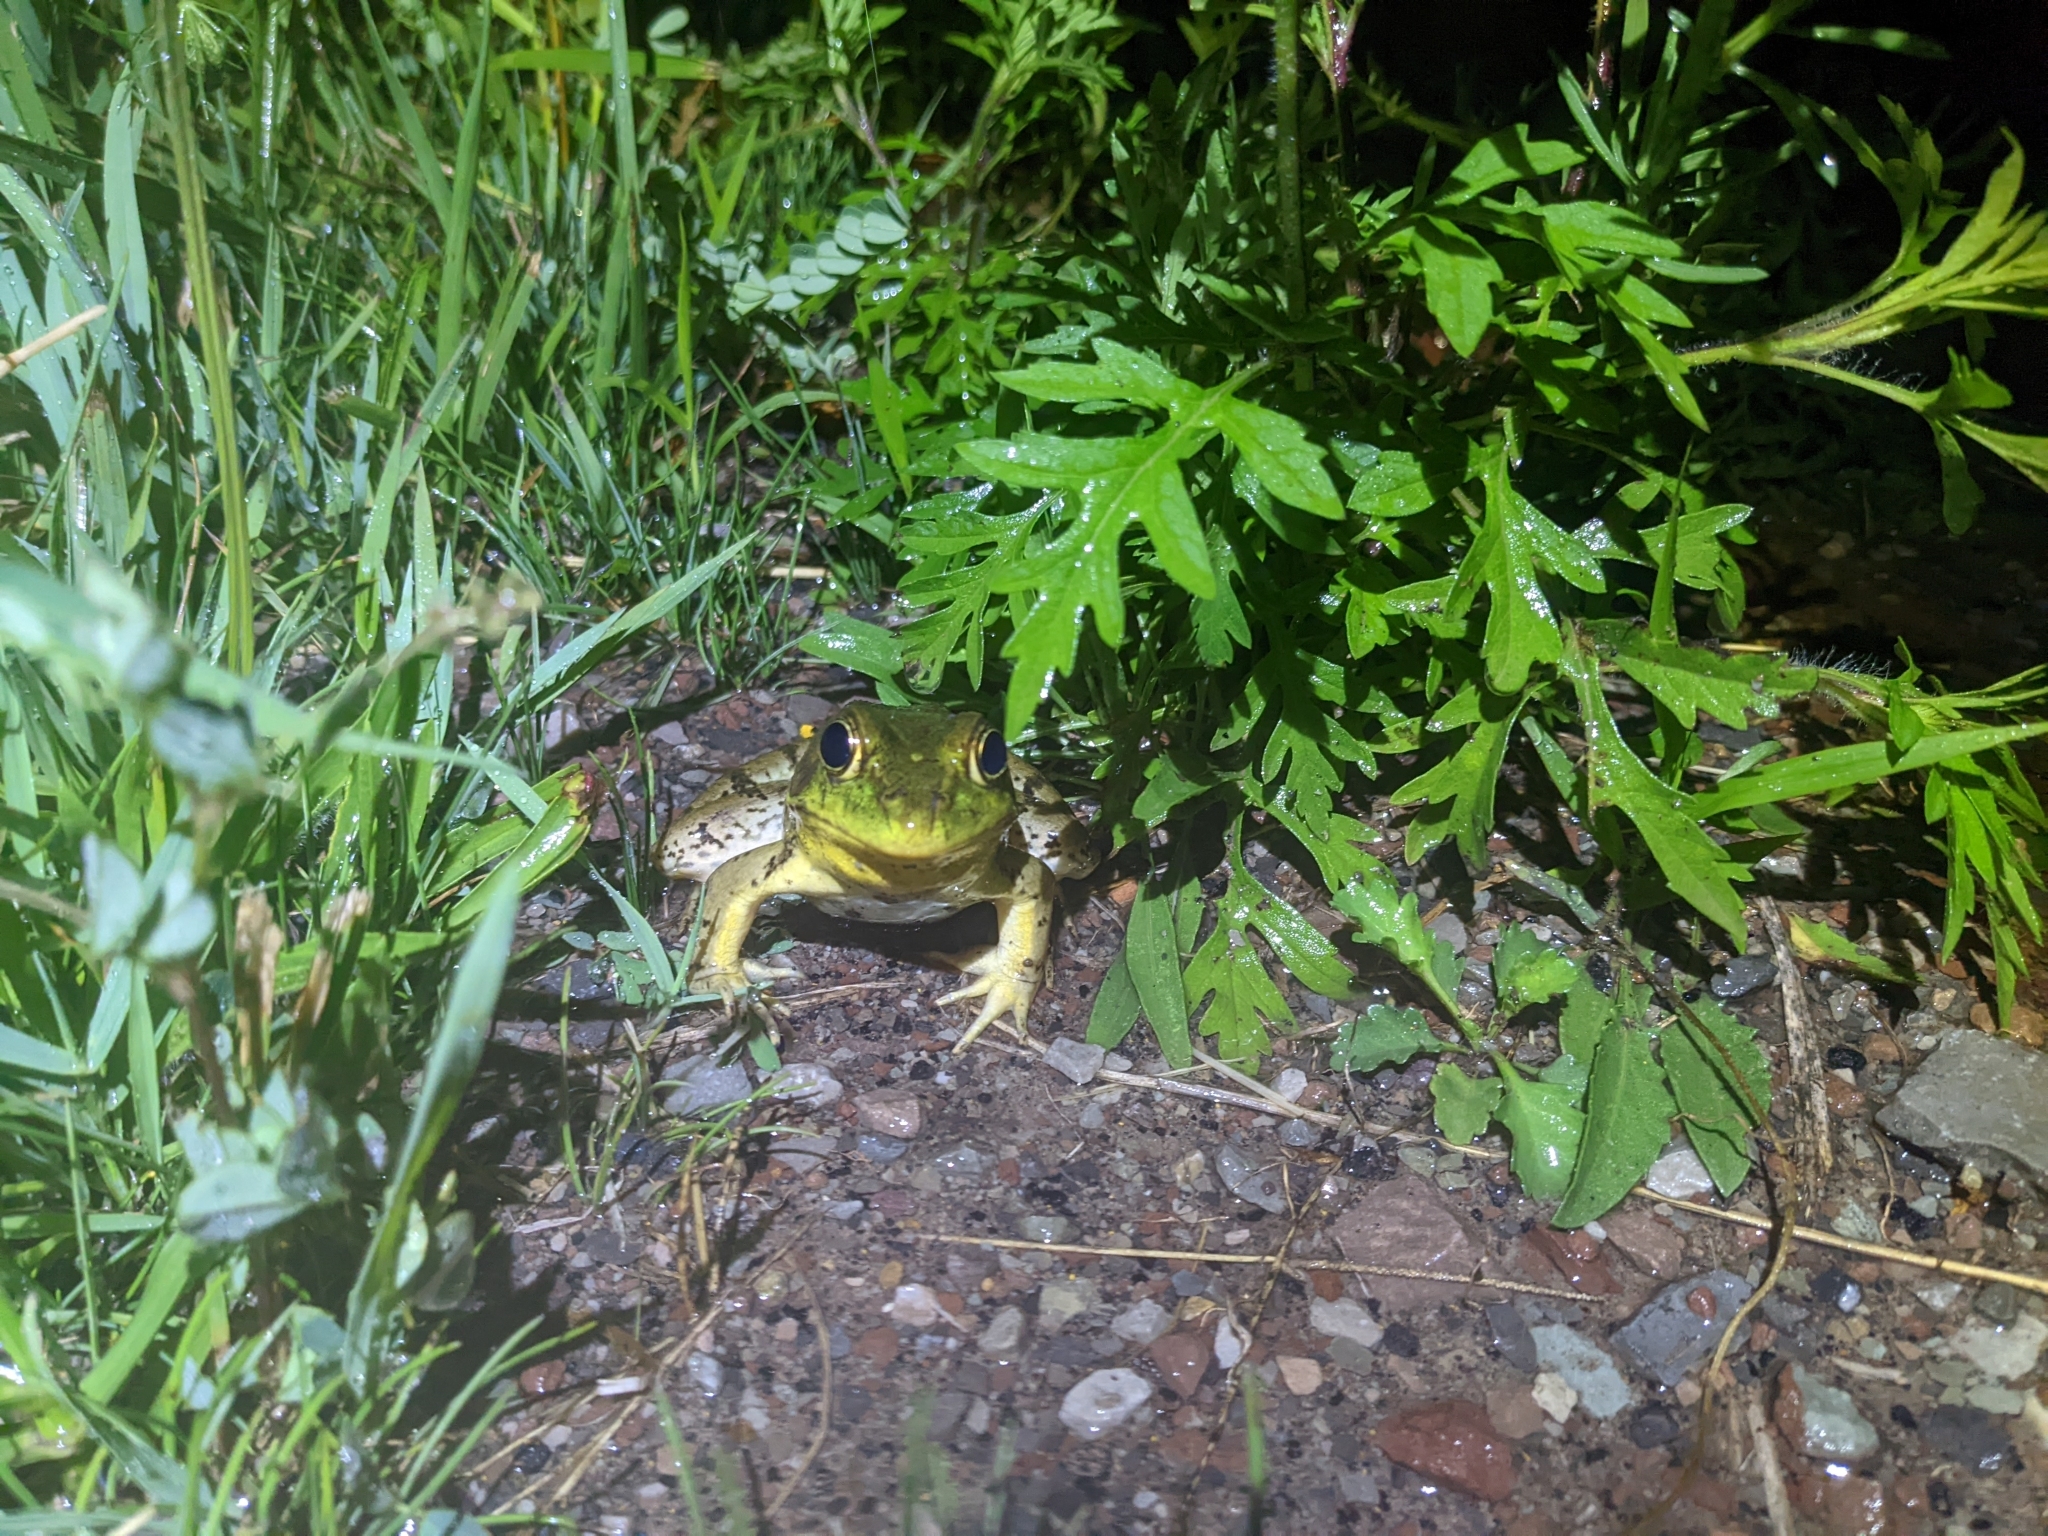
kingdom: Animalia
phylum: Chordata
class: Amphibia
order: Anura
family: Ranidae
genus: Lithobates
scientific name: Lithobates clamitans
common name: Green frog
